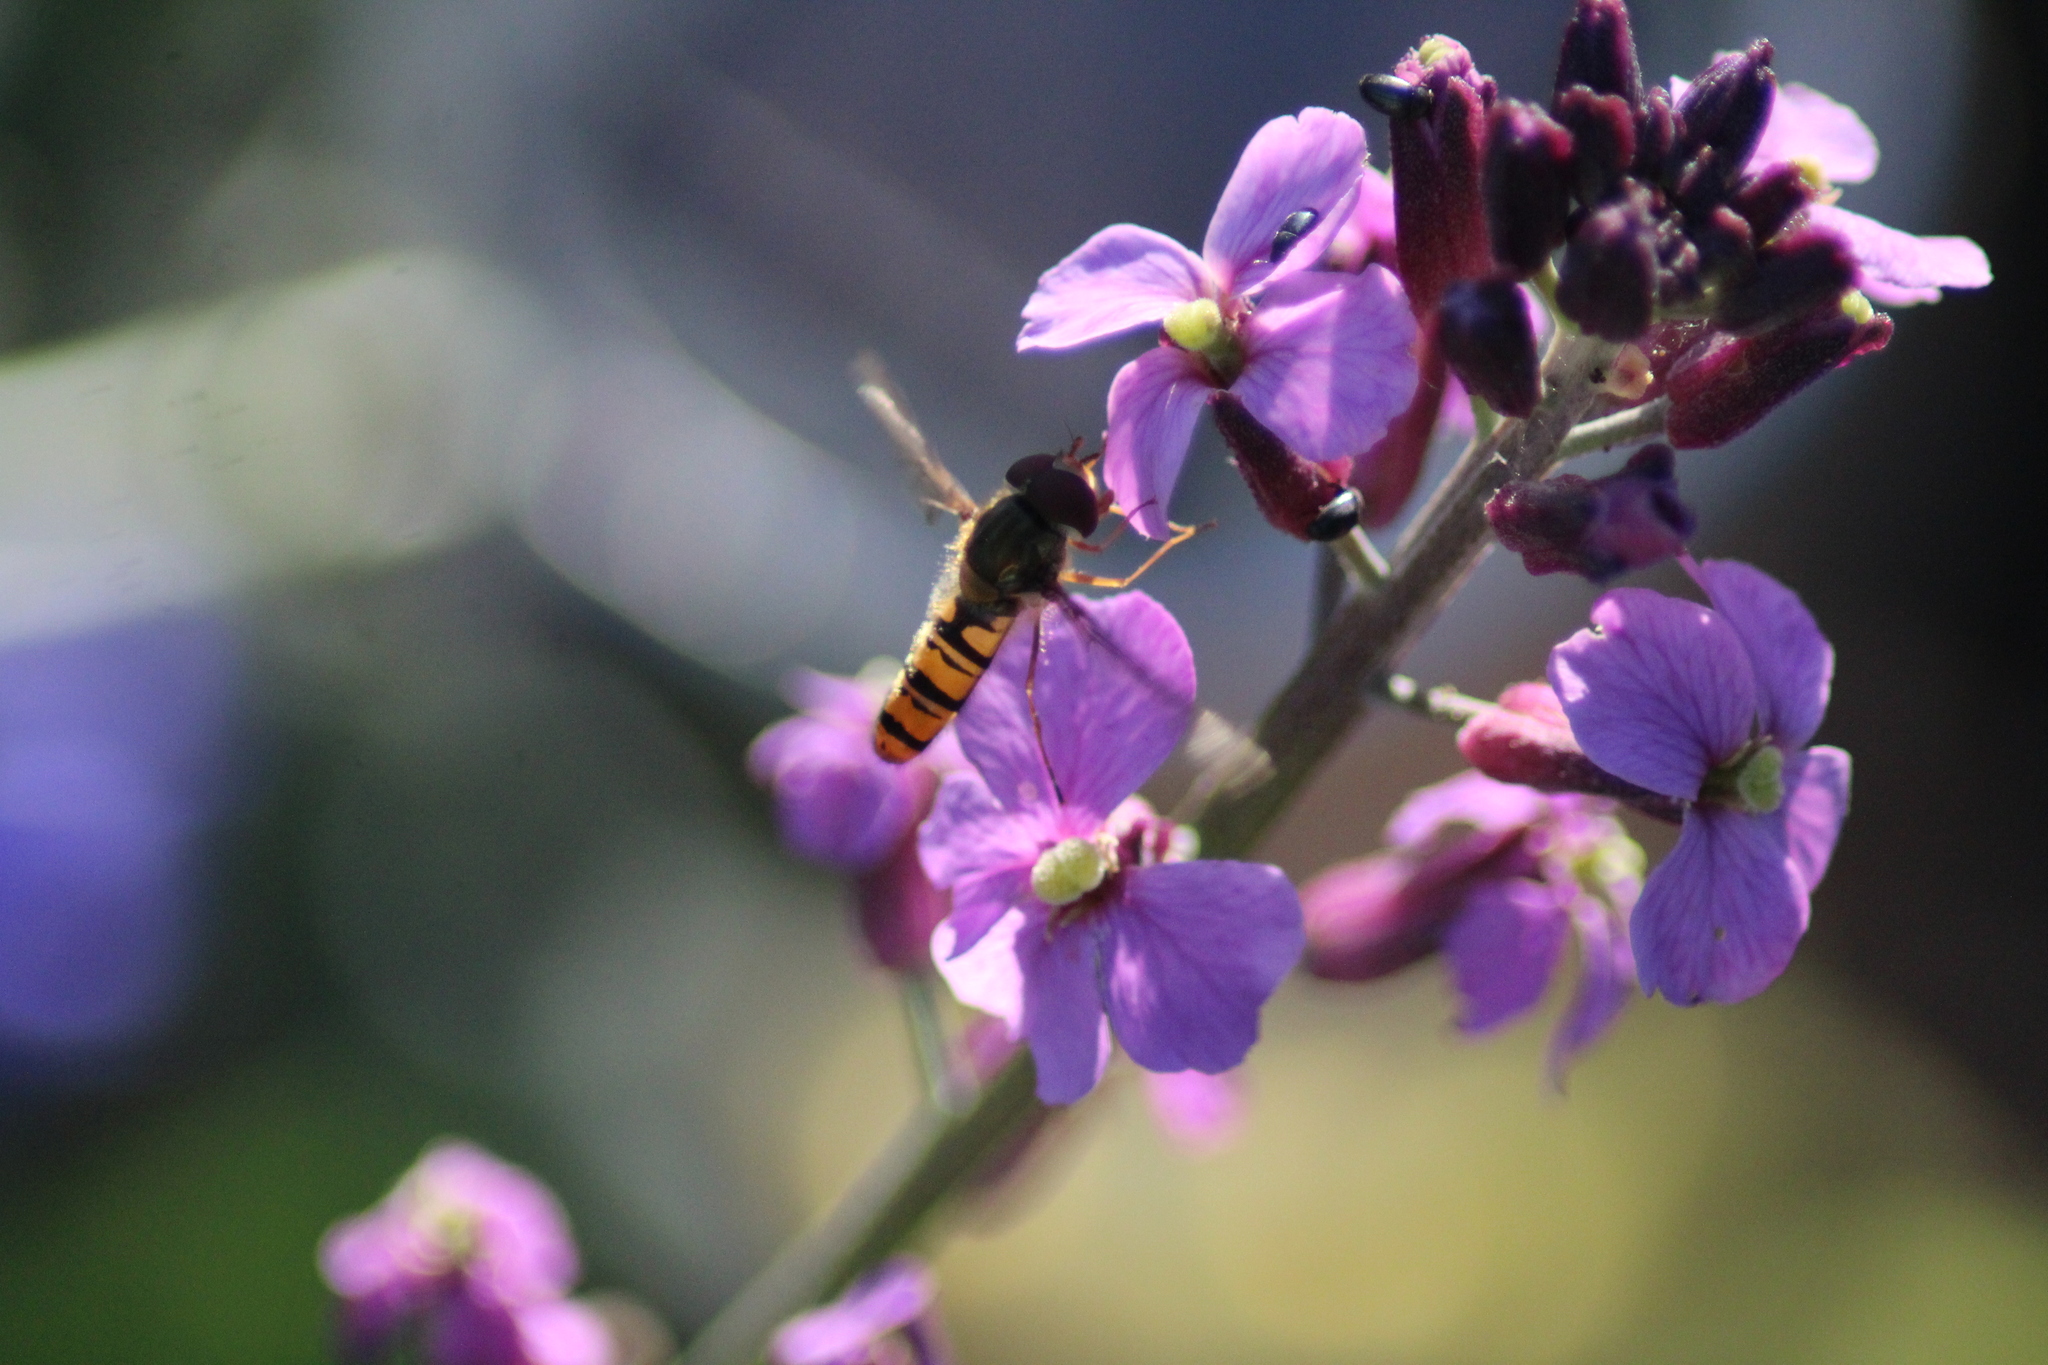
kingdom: Animalia
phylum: Arthropoda
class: Insecta
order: Diptera
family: Syrphidae
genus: Episyrphus
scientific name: Episyrphus balteatus
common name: Marmalade hoverfly
